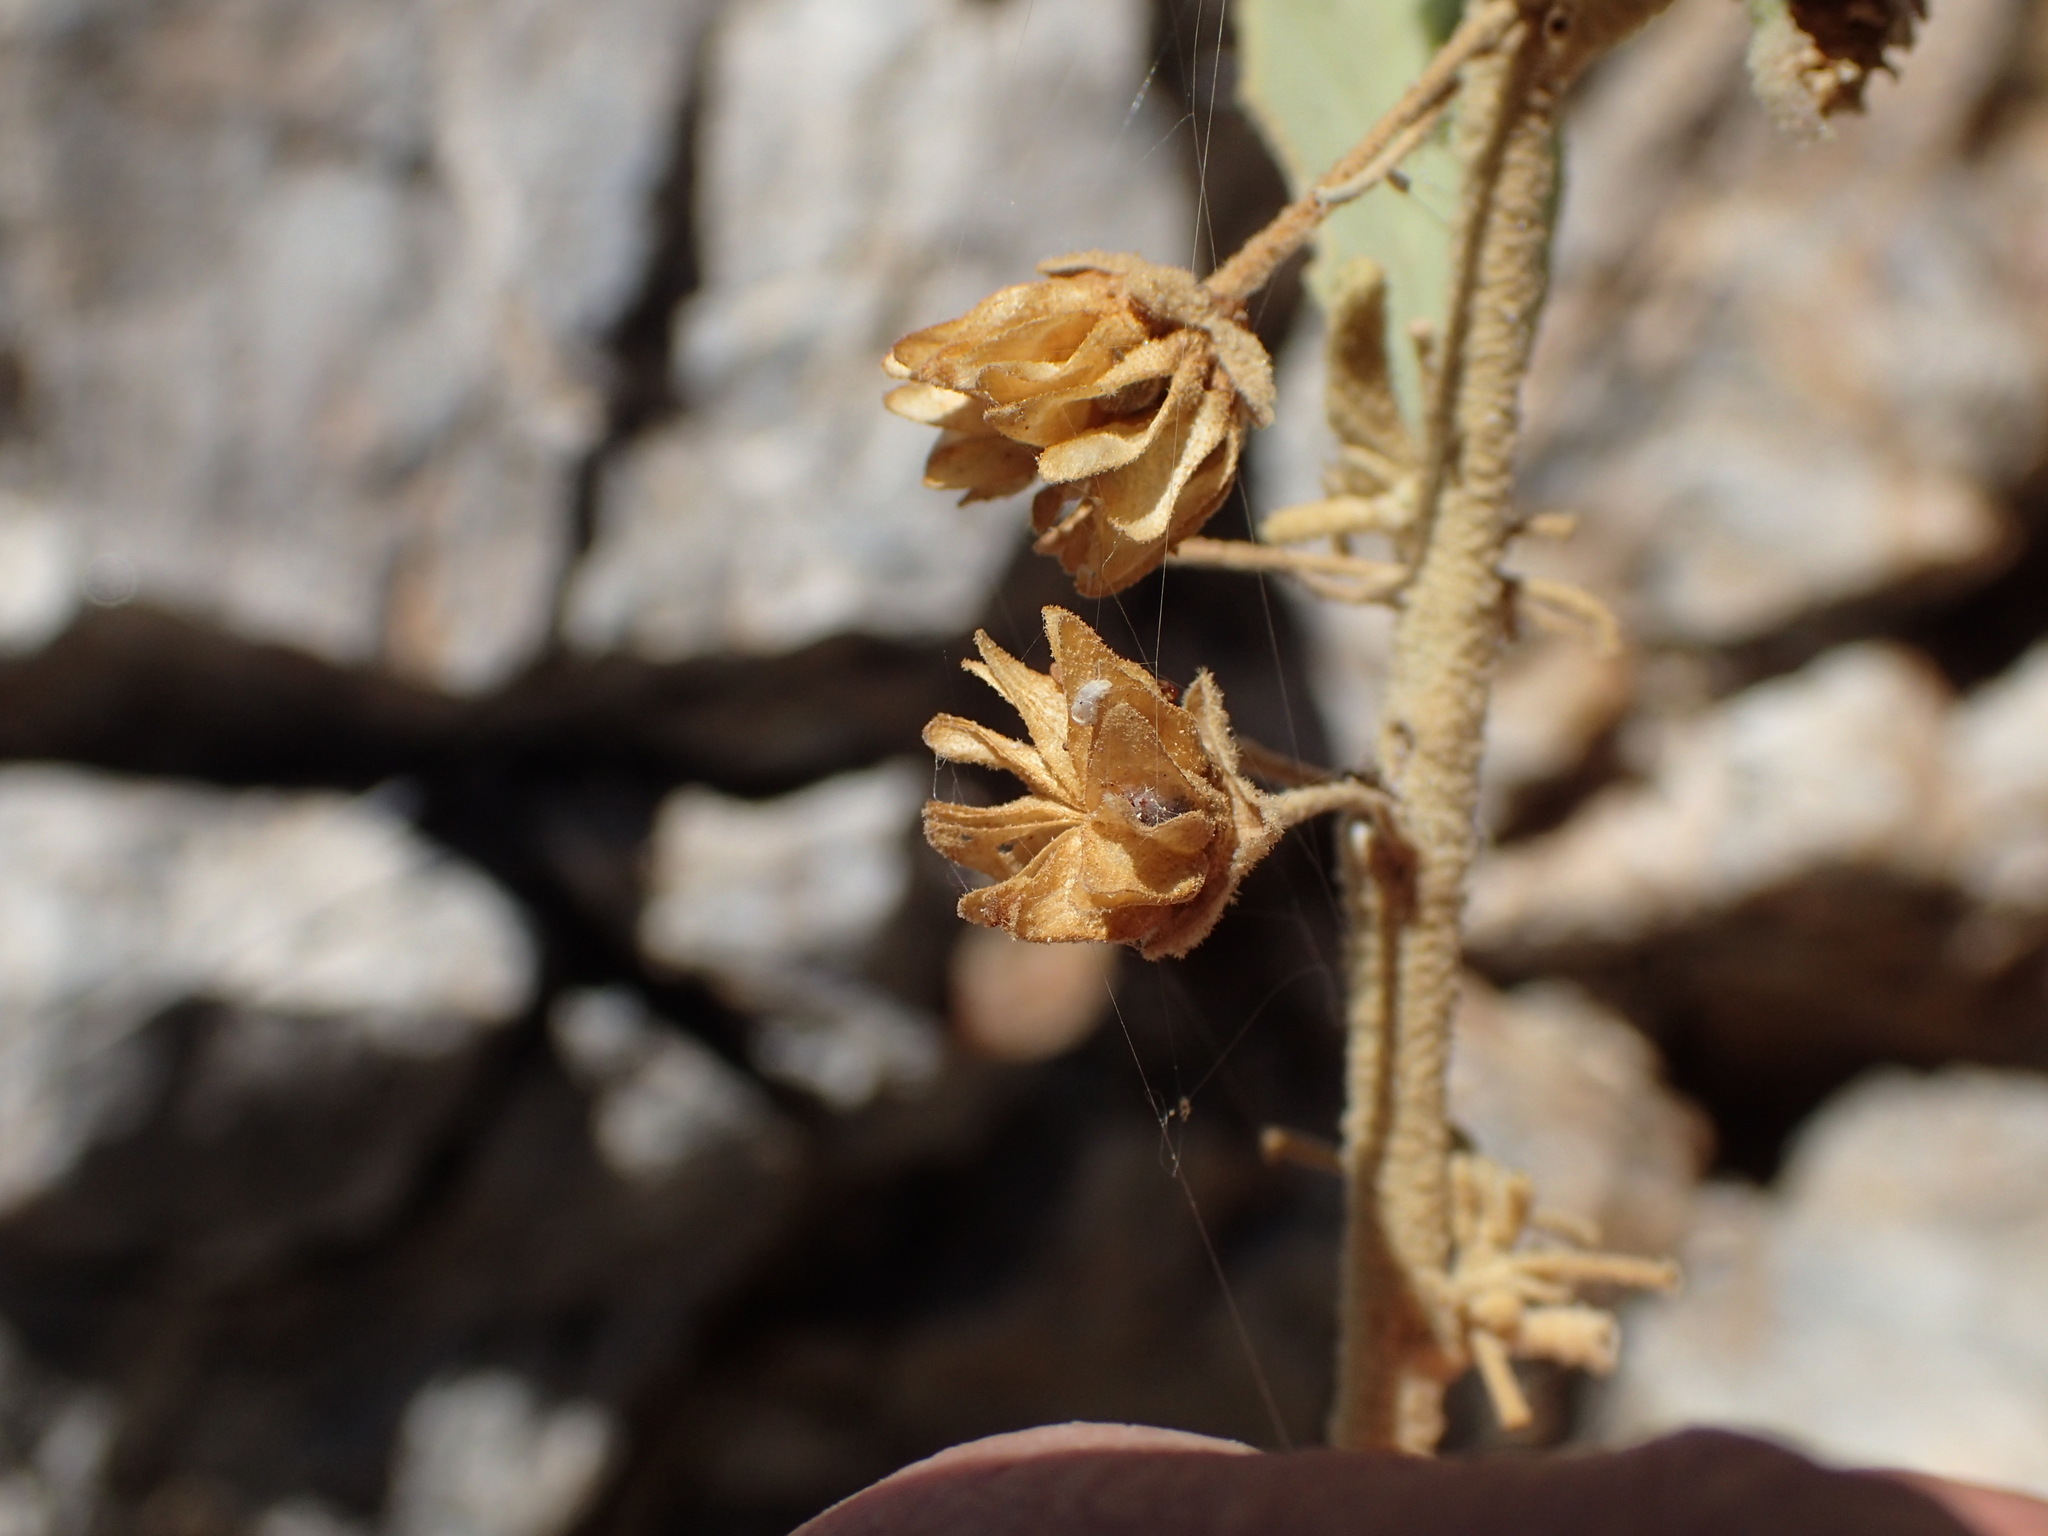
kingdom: Plantae
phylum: Tracheophyta
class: Magnoliopsida
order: Malvales
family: Malvaceae
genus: Horsfordia
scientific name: Horsfordia newberryi
